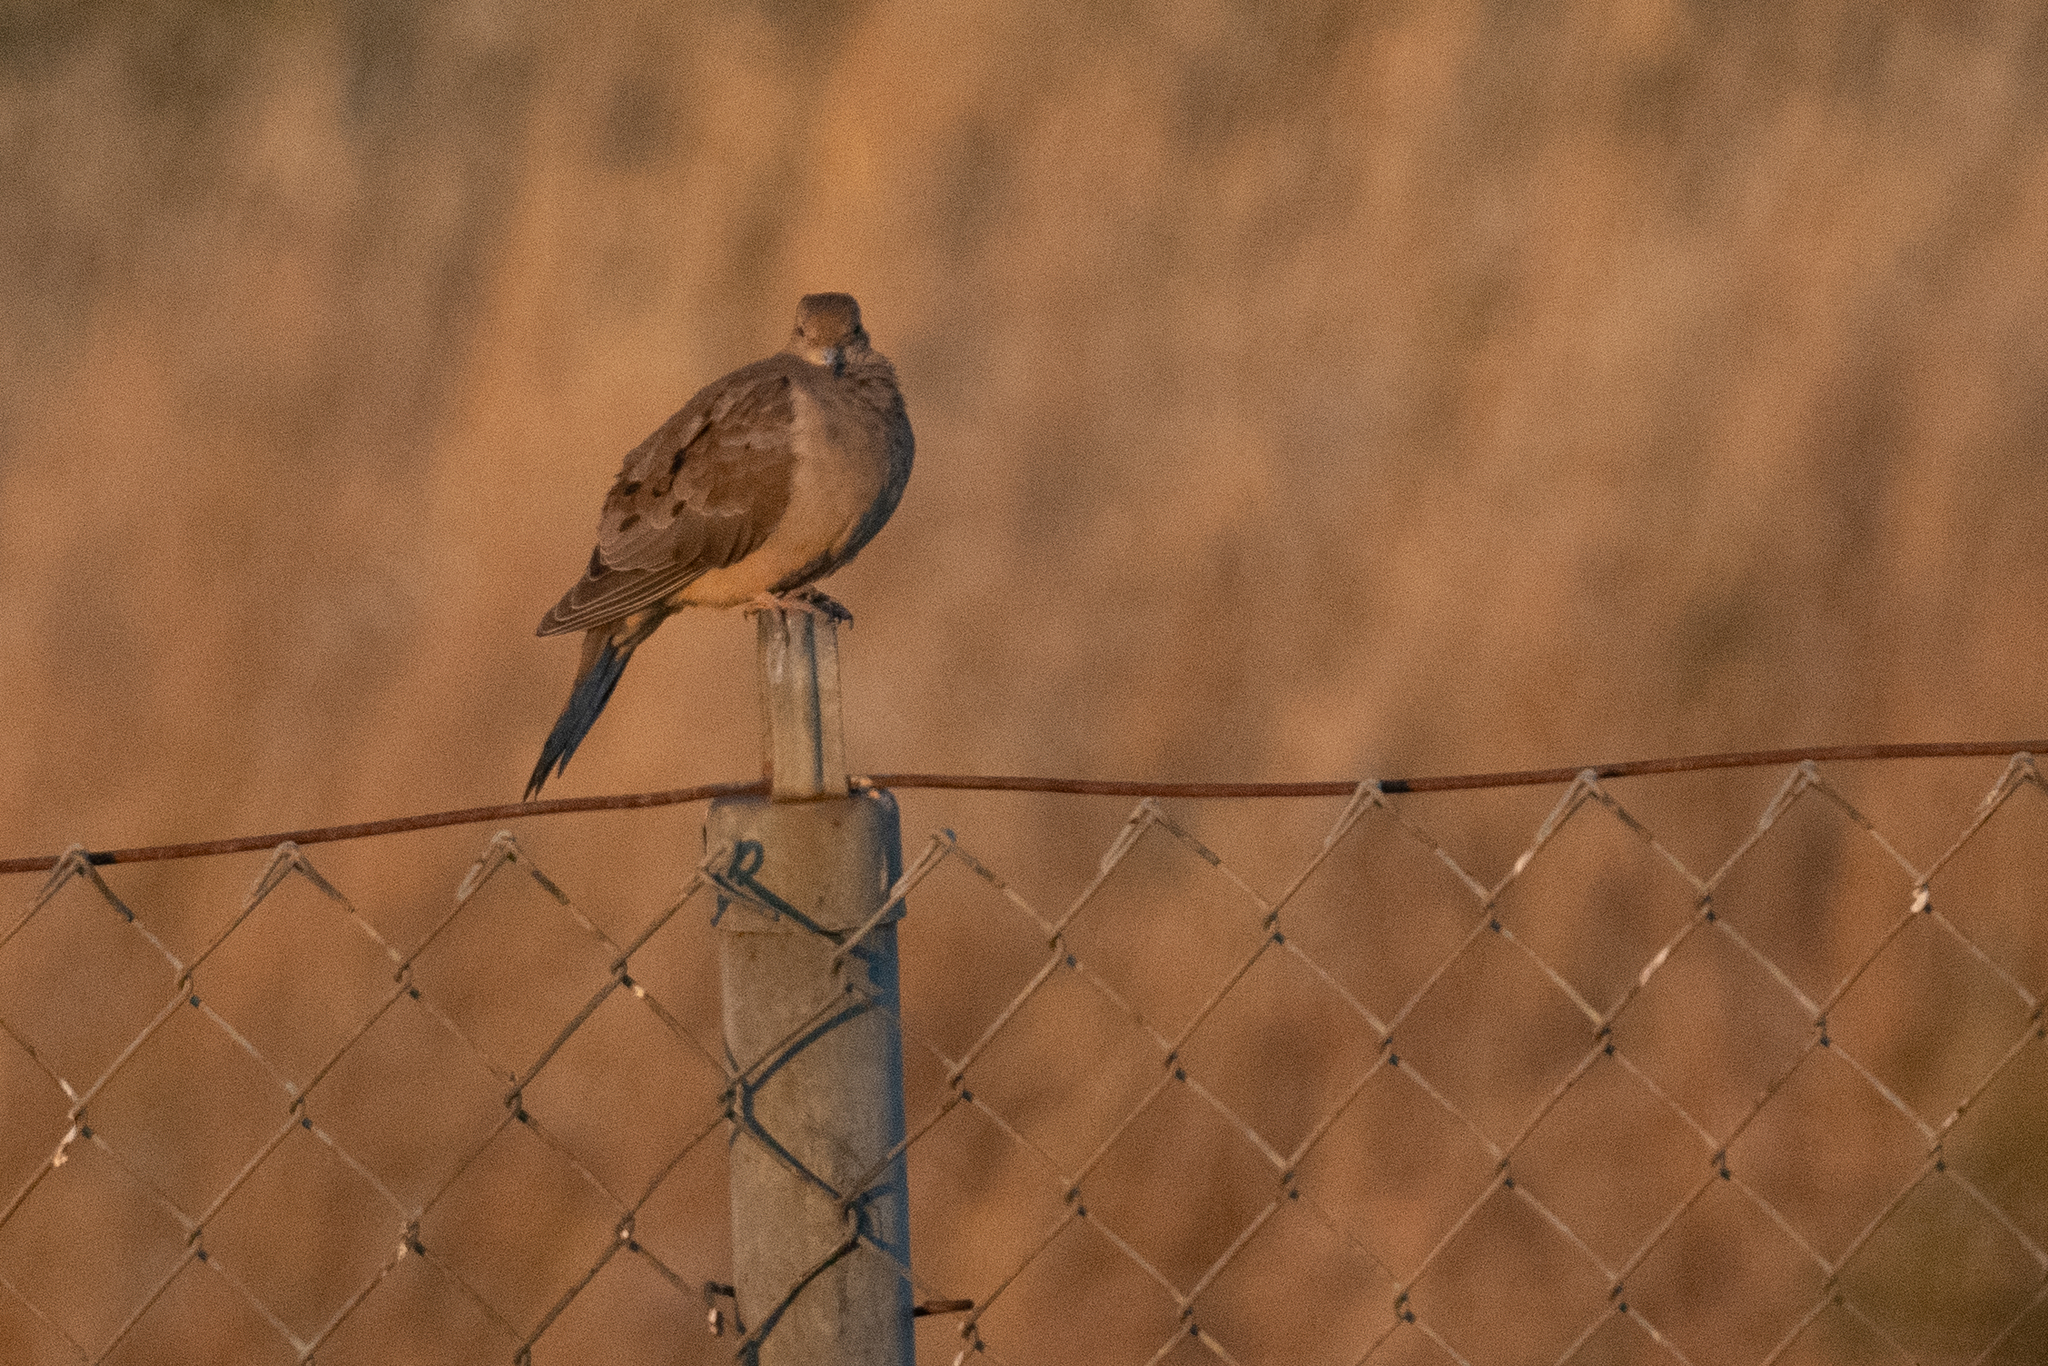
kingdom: Animalia
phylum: Chordata
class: Aves
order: Columbiformes
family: Columbidae
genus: Zenaida
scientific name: Zenaida macroura
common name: Mourning dove
